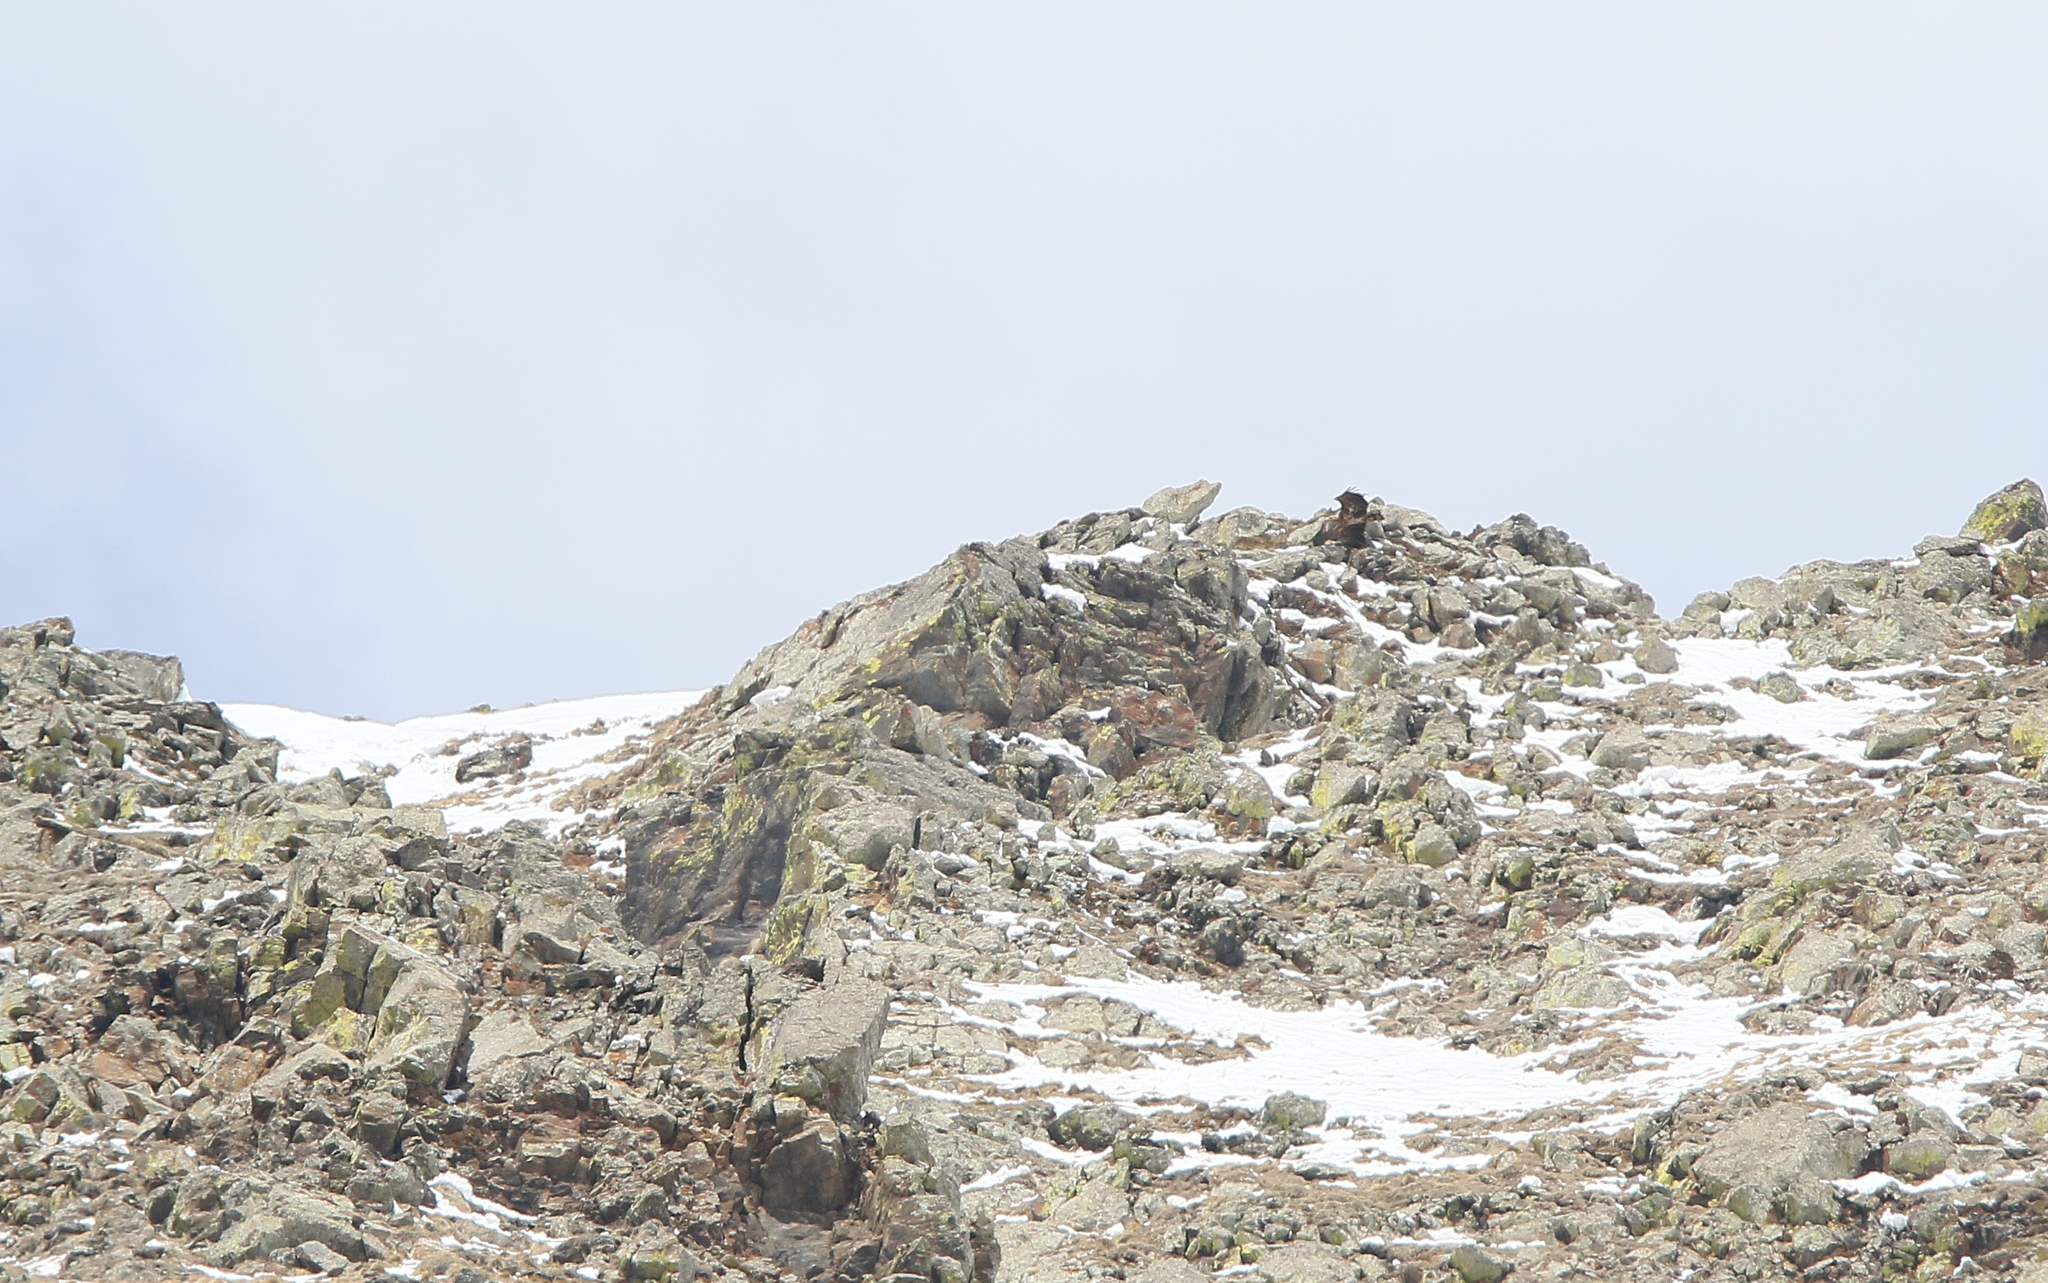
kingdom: Animalia
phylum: Chordata
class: Aves
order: Accipitriformes
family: Accipitridae
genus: Haliaeetus
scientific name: Haliaeetus albicilla
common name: White-tailed eagle
